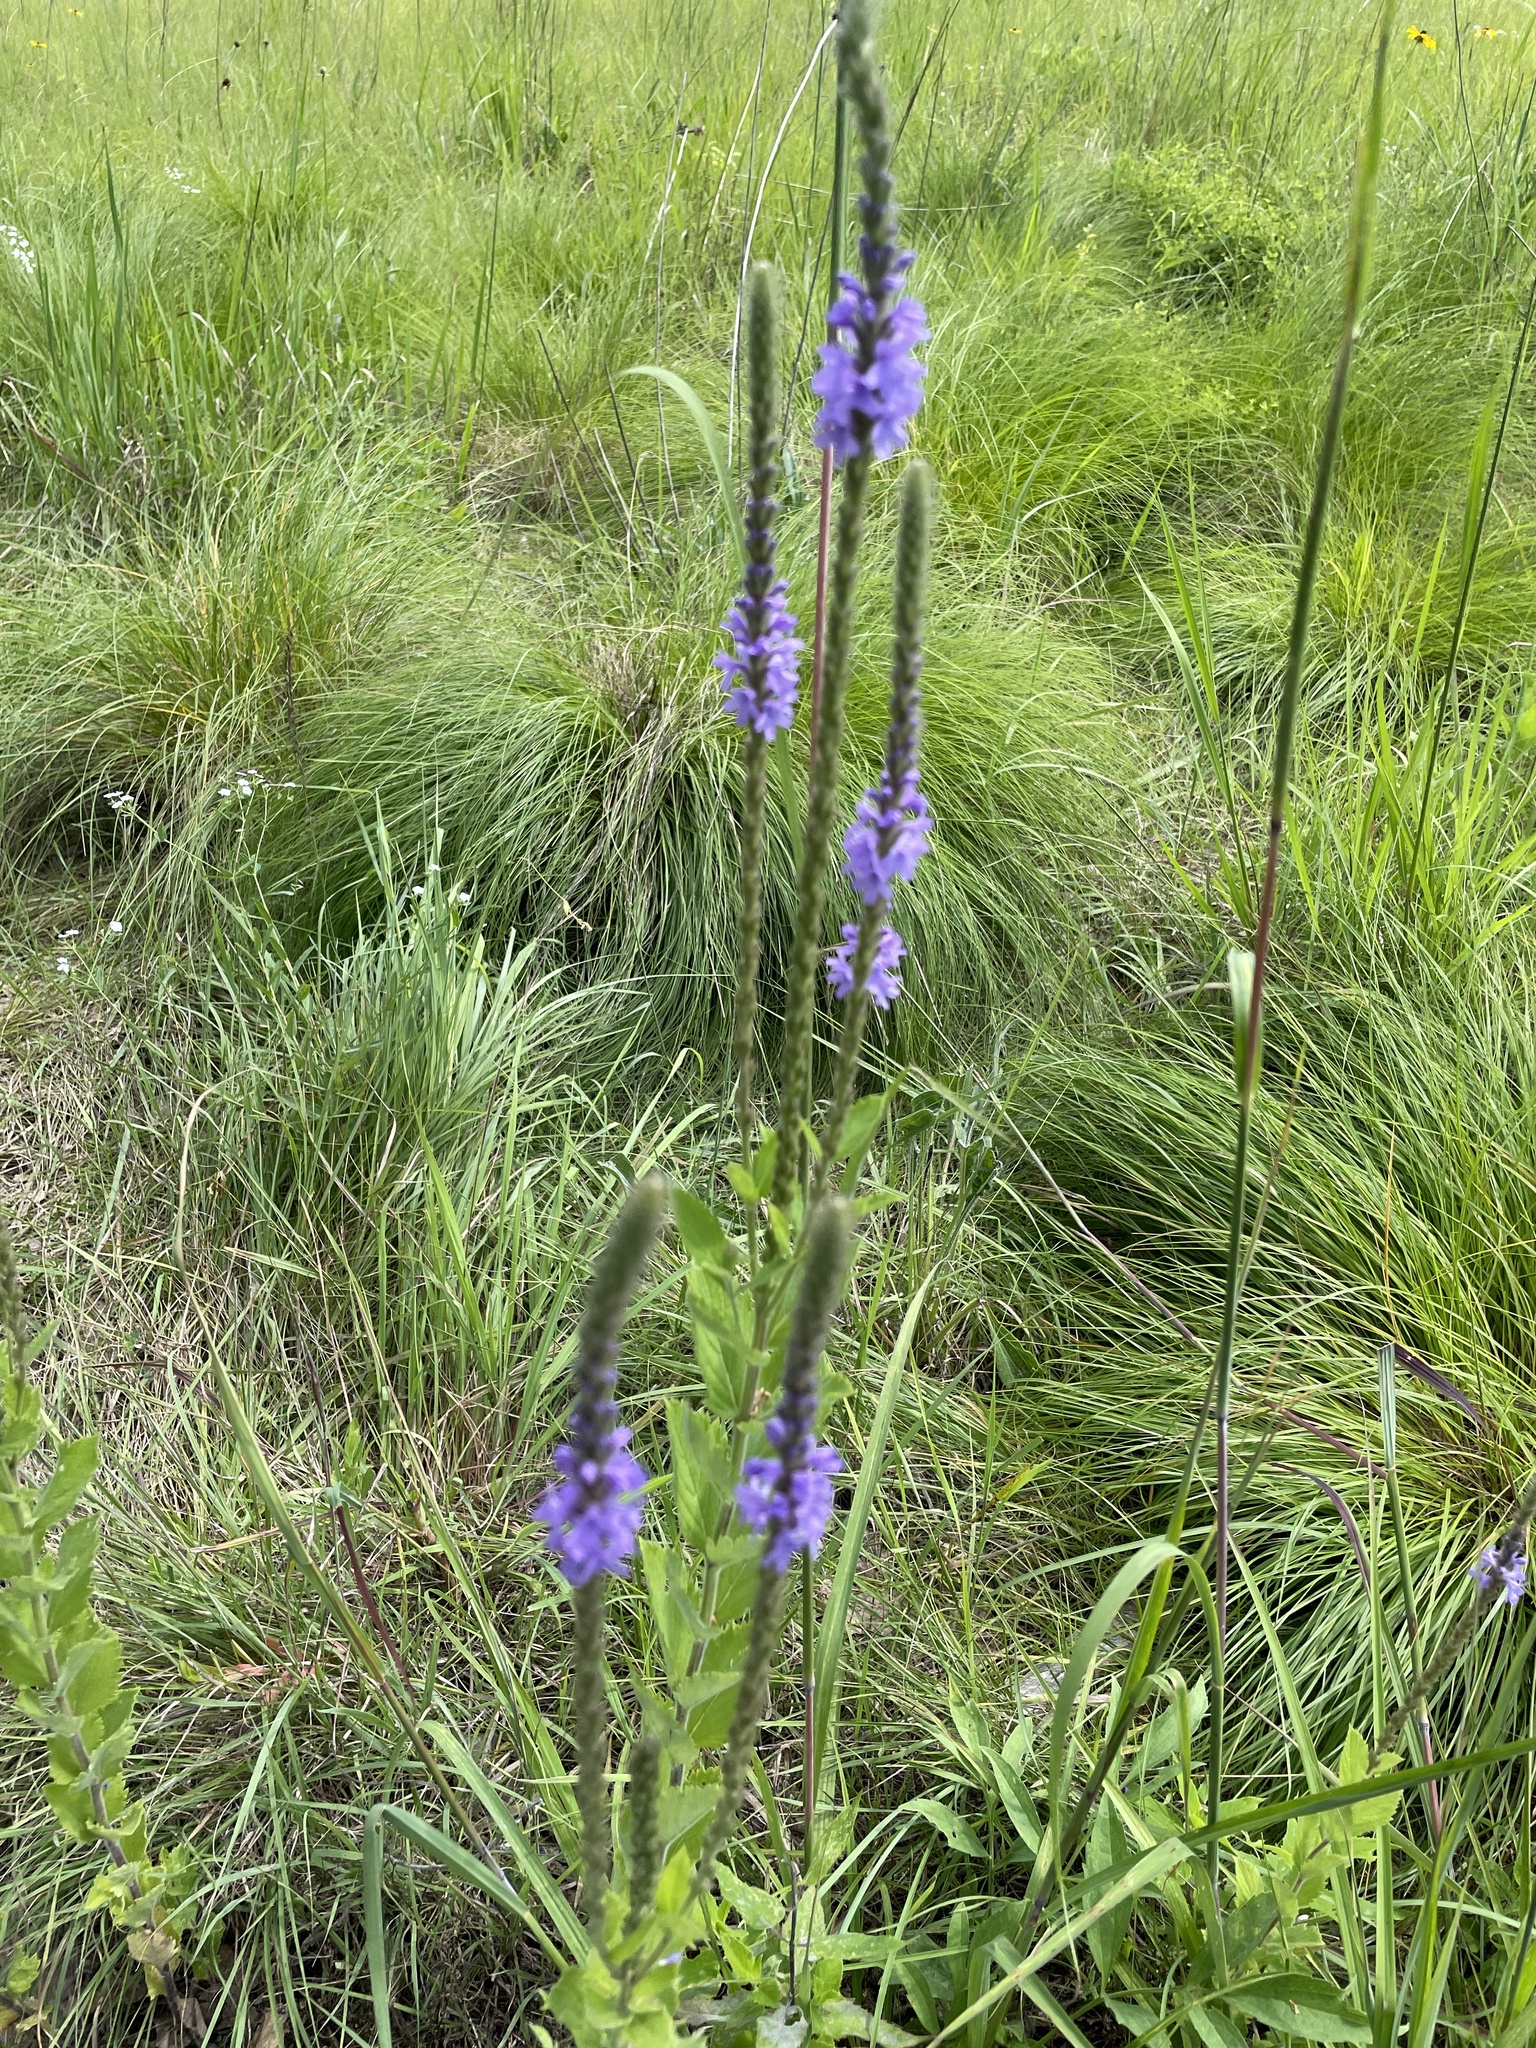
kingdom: Plantae
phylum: Tracheophyta
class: Magnoliopsida
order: Lamiales
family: Verbenaceae
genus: Verbena
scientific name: Verbena stricta
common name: Hoary vervain
